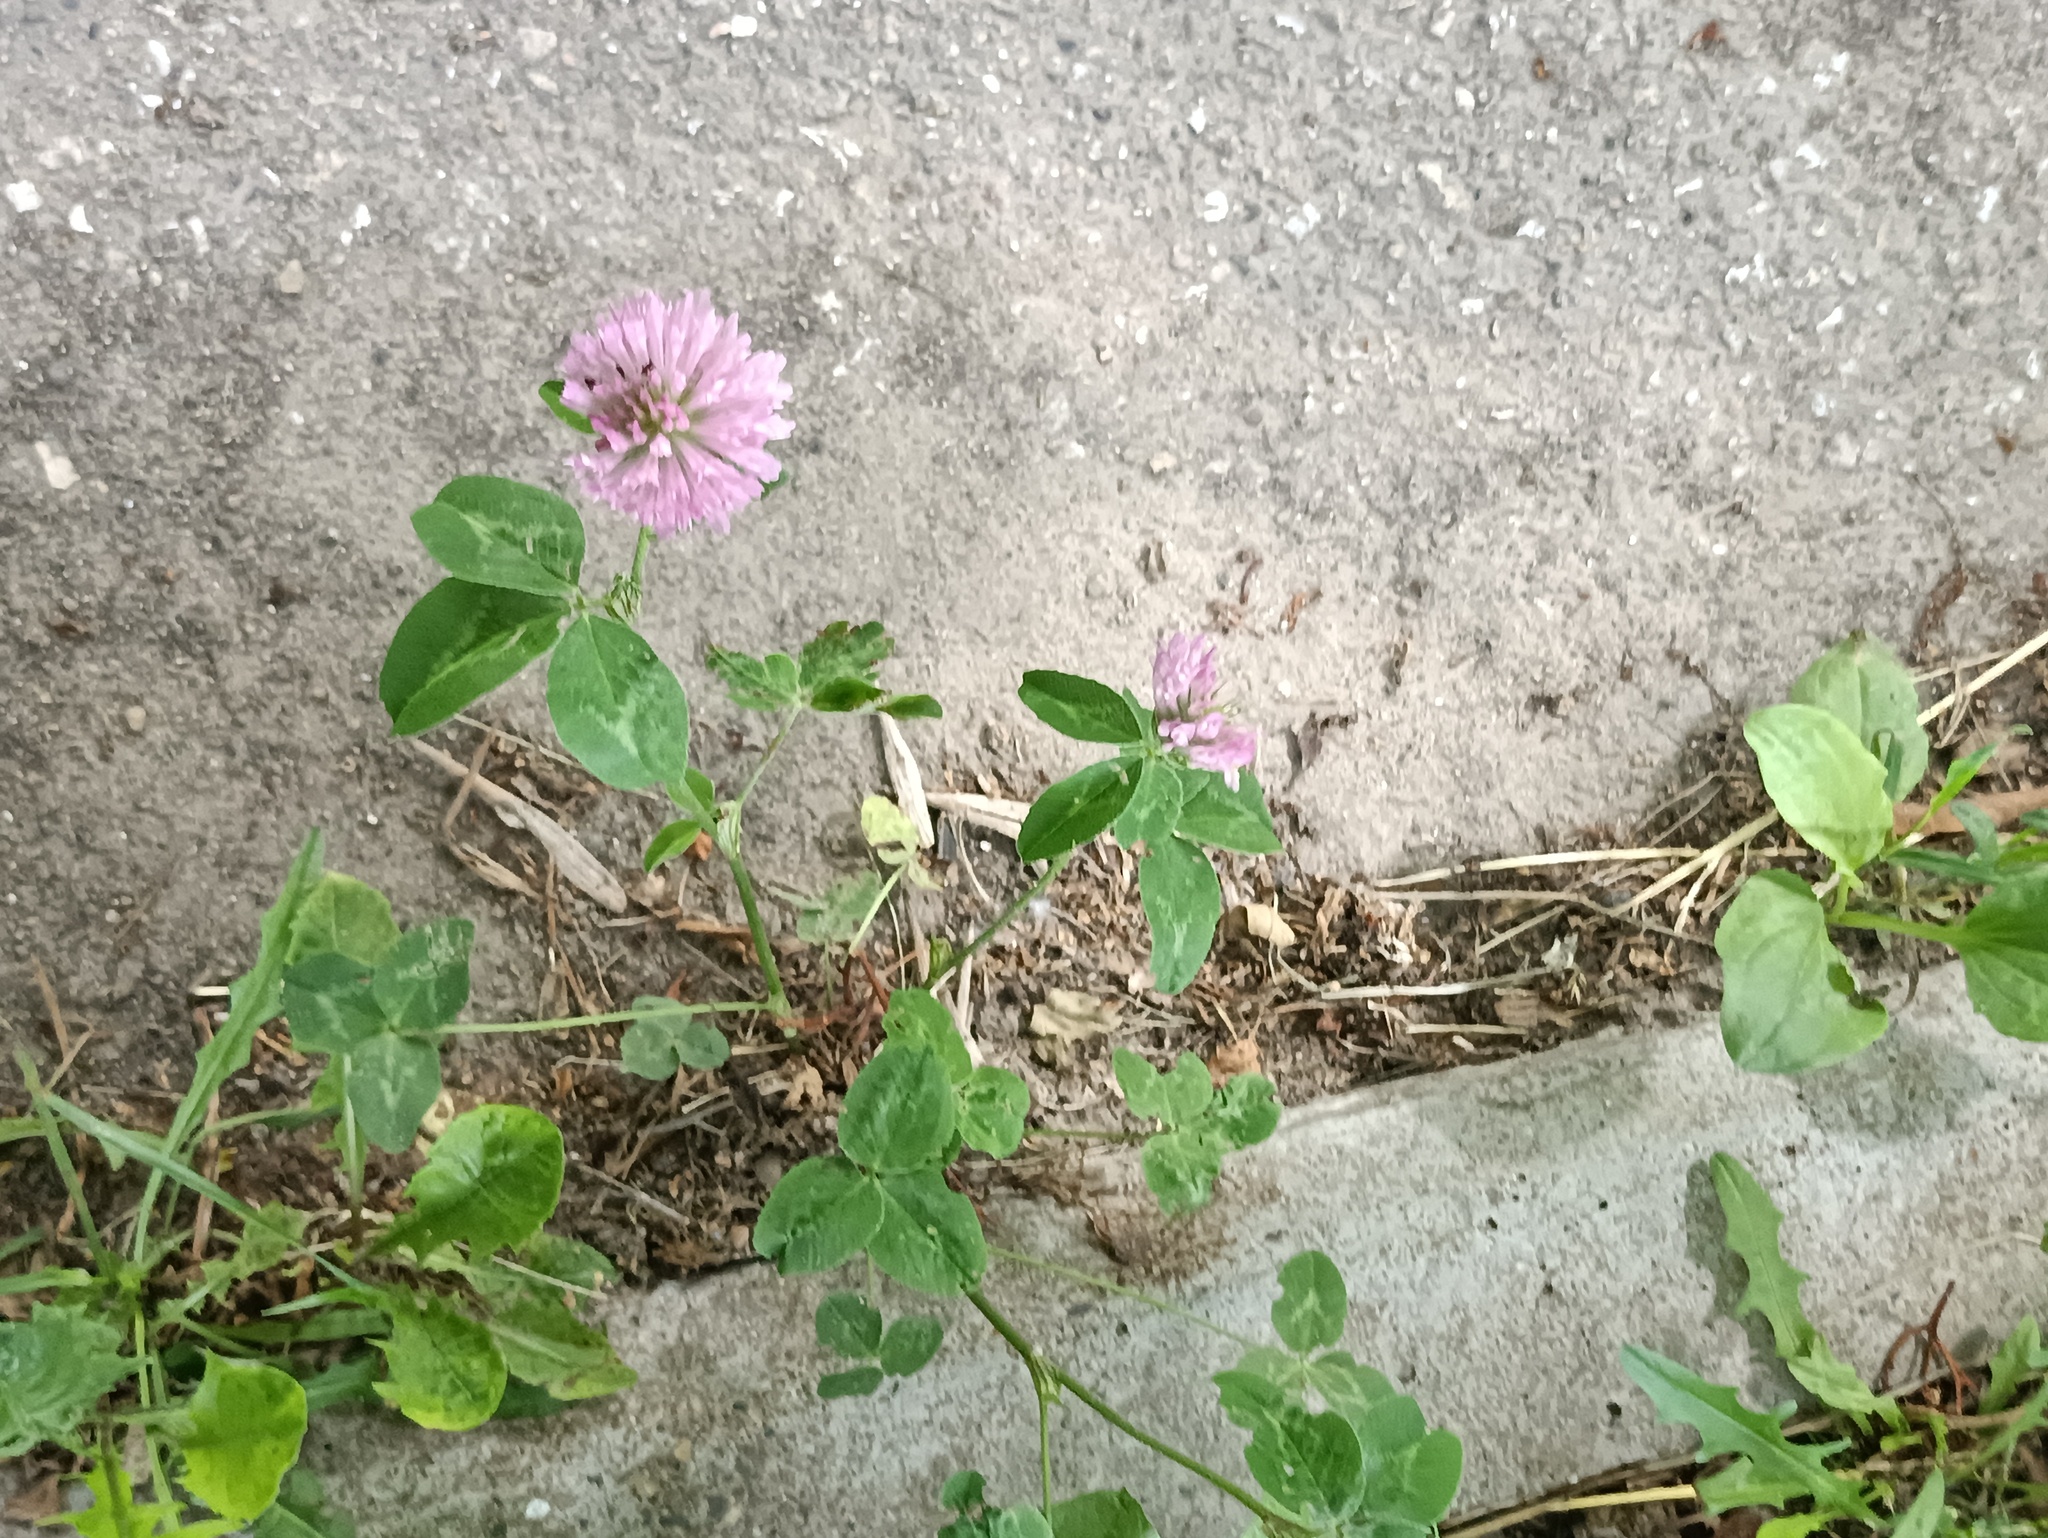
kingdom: Plantae
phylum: Tracheophyta
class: Magnoliopsida
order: Fabales
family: Fabaceae
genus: Trifolium
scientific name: Trifolium pratense
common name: Red clover
